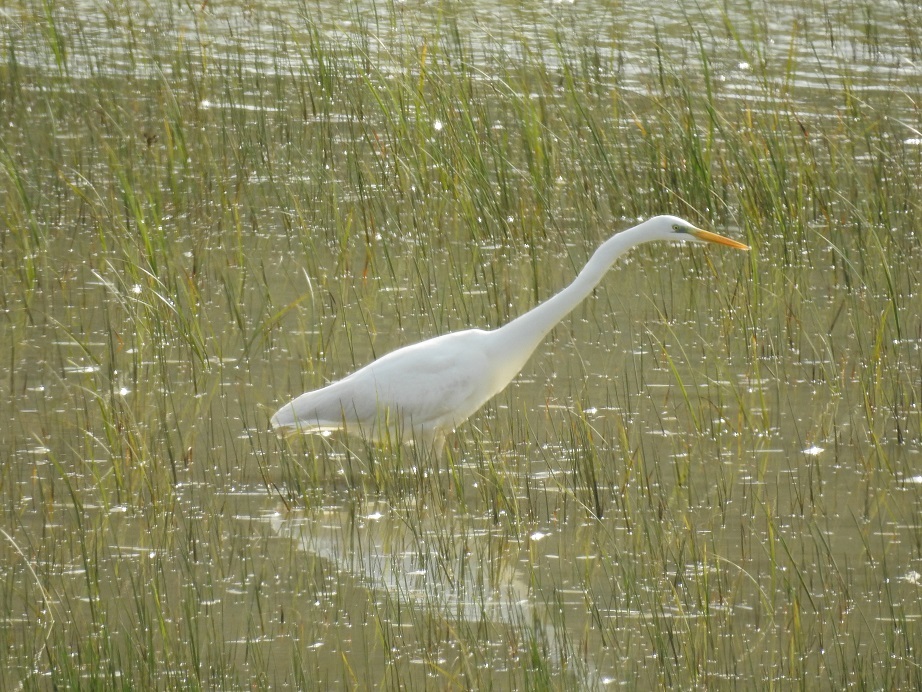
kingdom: Animalia
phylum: Chordata
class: Aves
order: Pelecaniformes
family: Ardeidae
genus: Ardea
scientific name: Ardea alba
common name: Great egret
